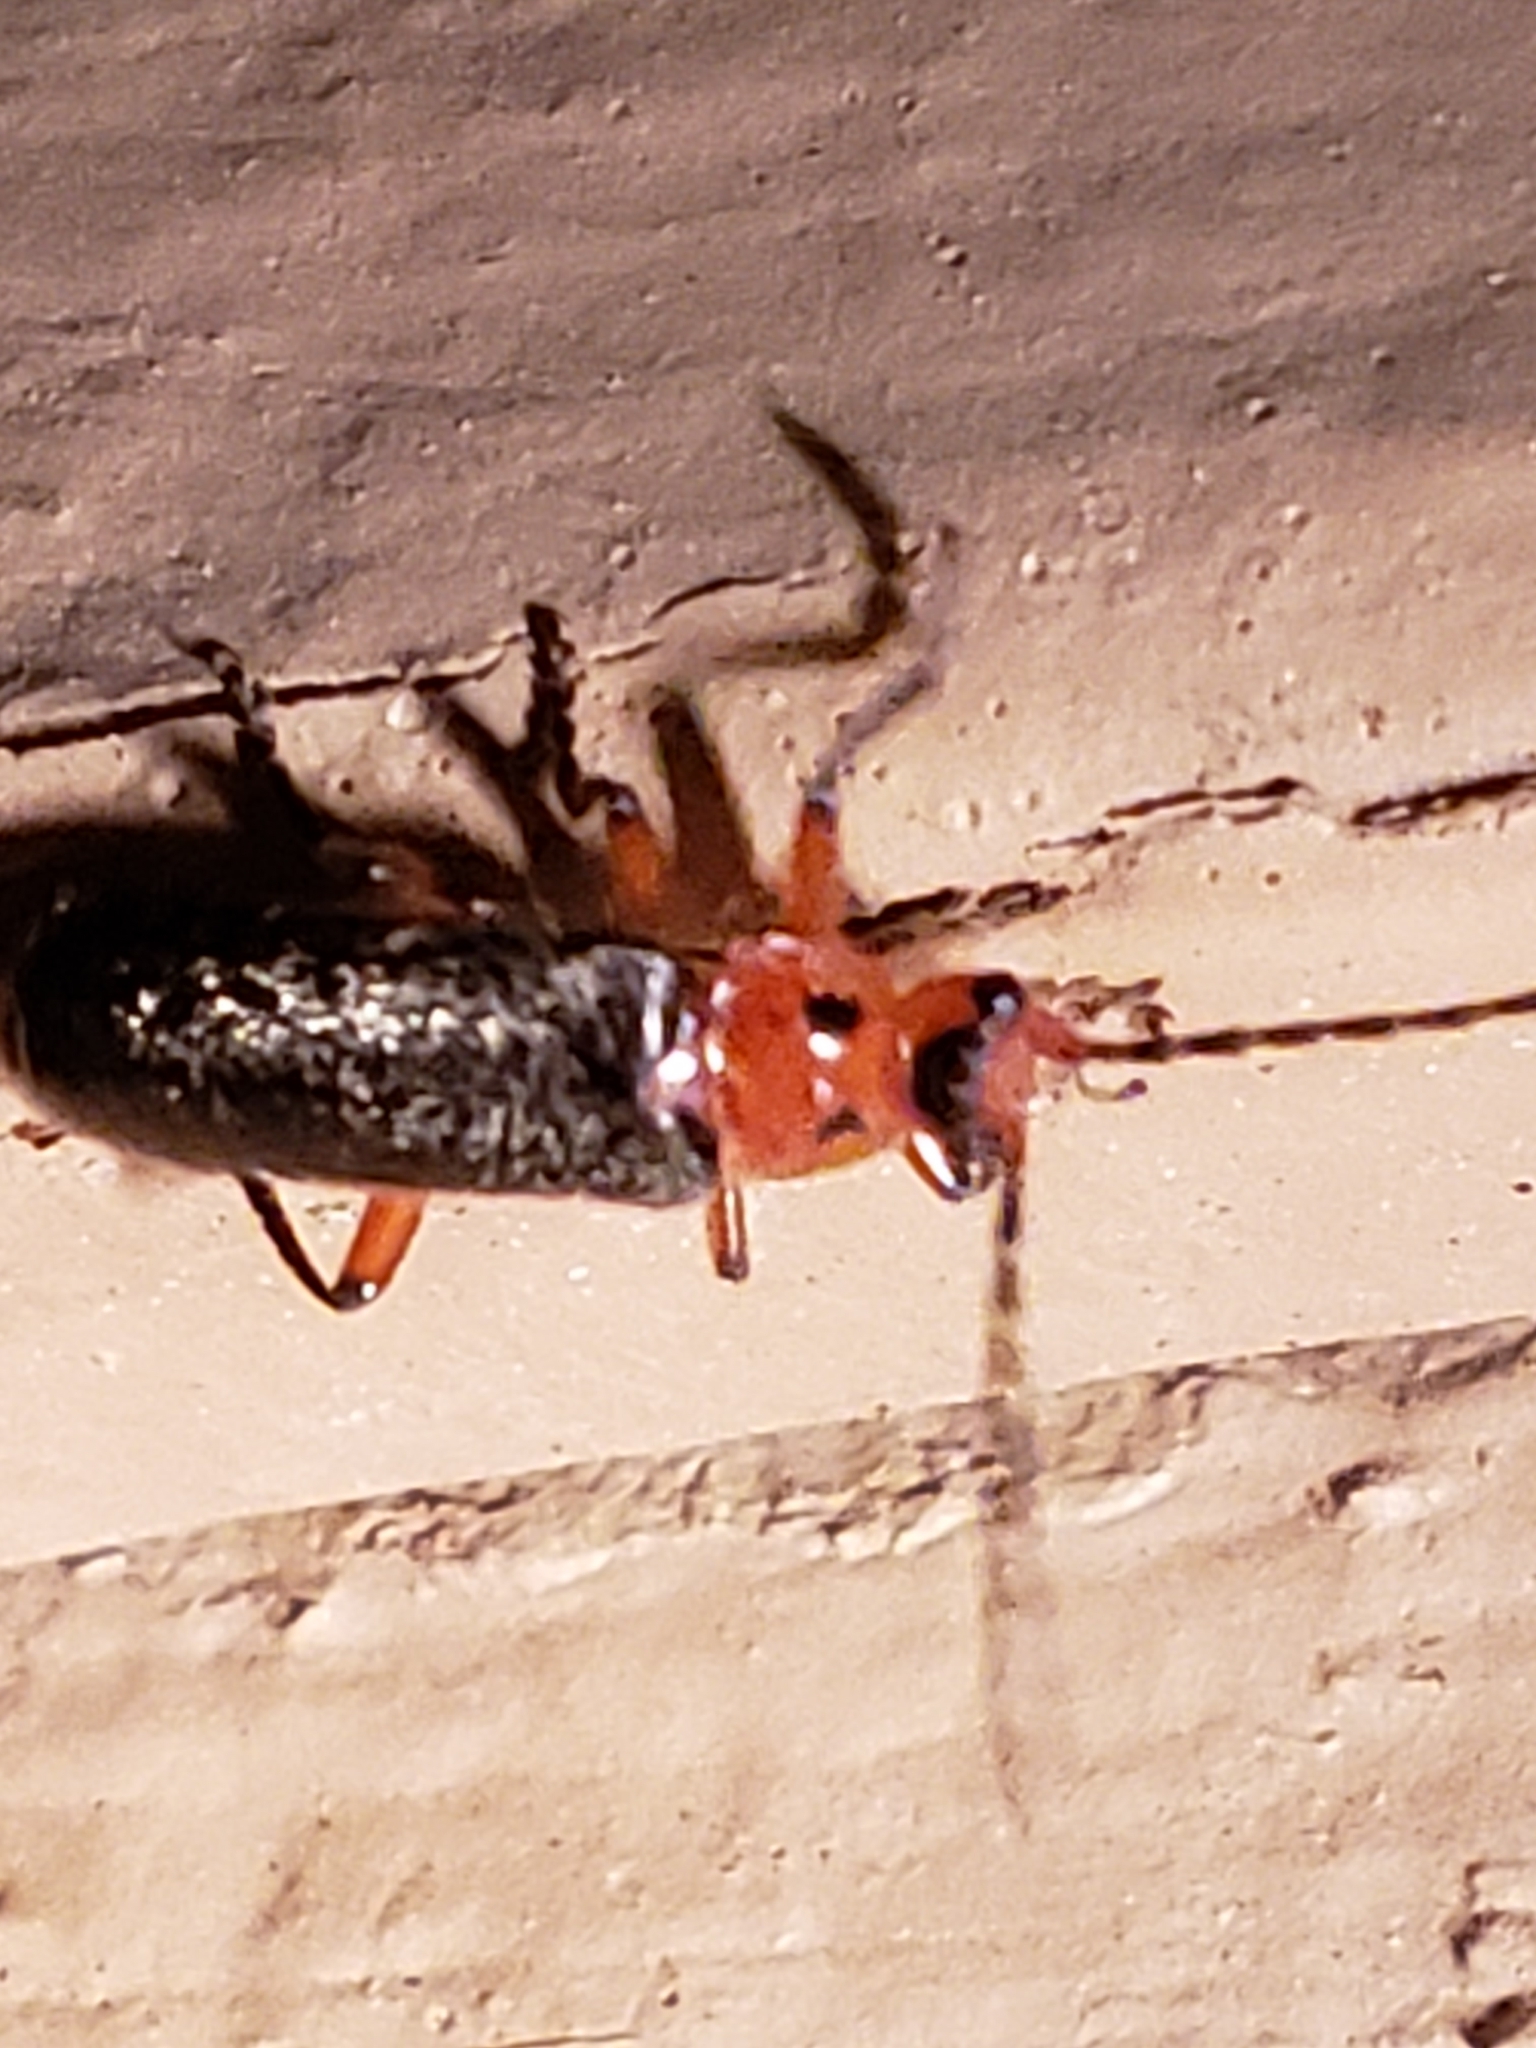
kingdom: Animalia
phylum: Arthropoda
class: Insecta
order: Coleoptera
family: Cantharidae
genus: Atalantycha
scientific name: Atalantycha bilineata
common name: Two-lined leatherwing
